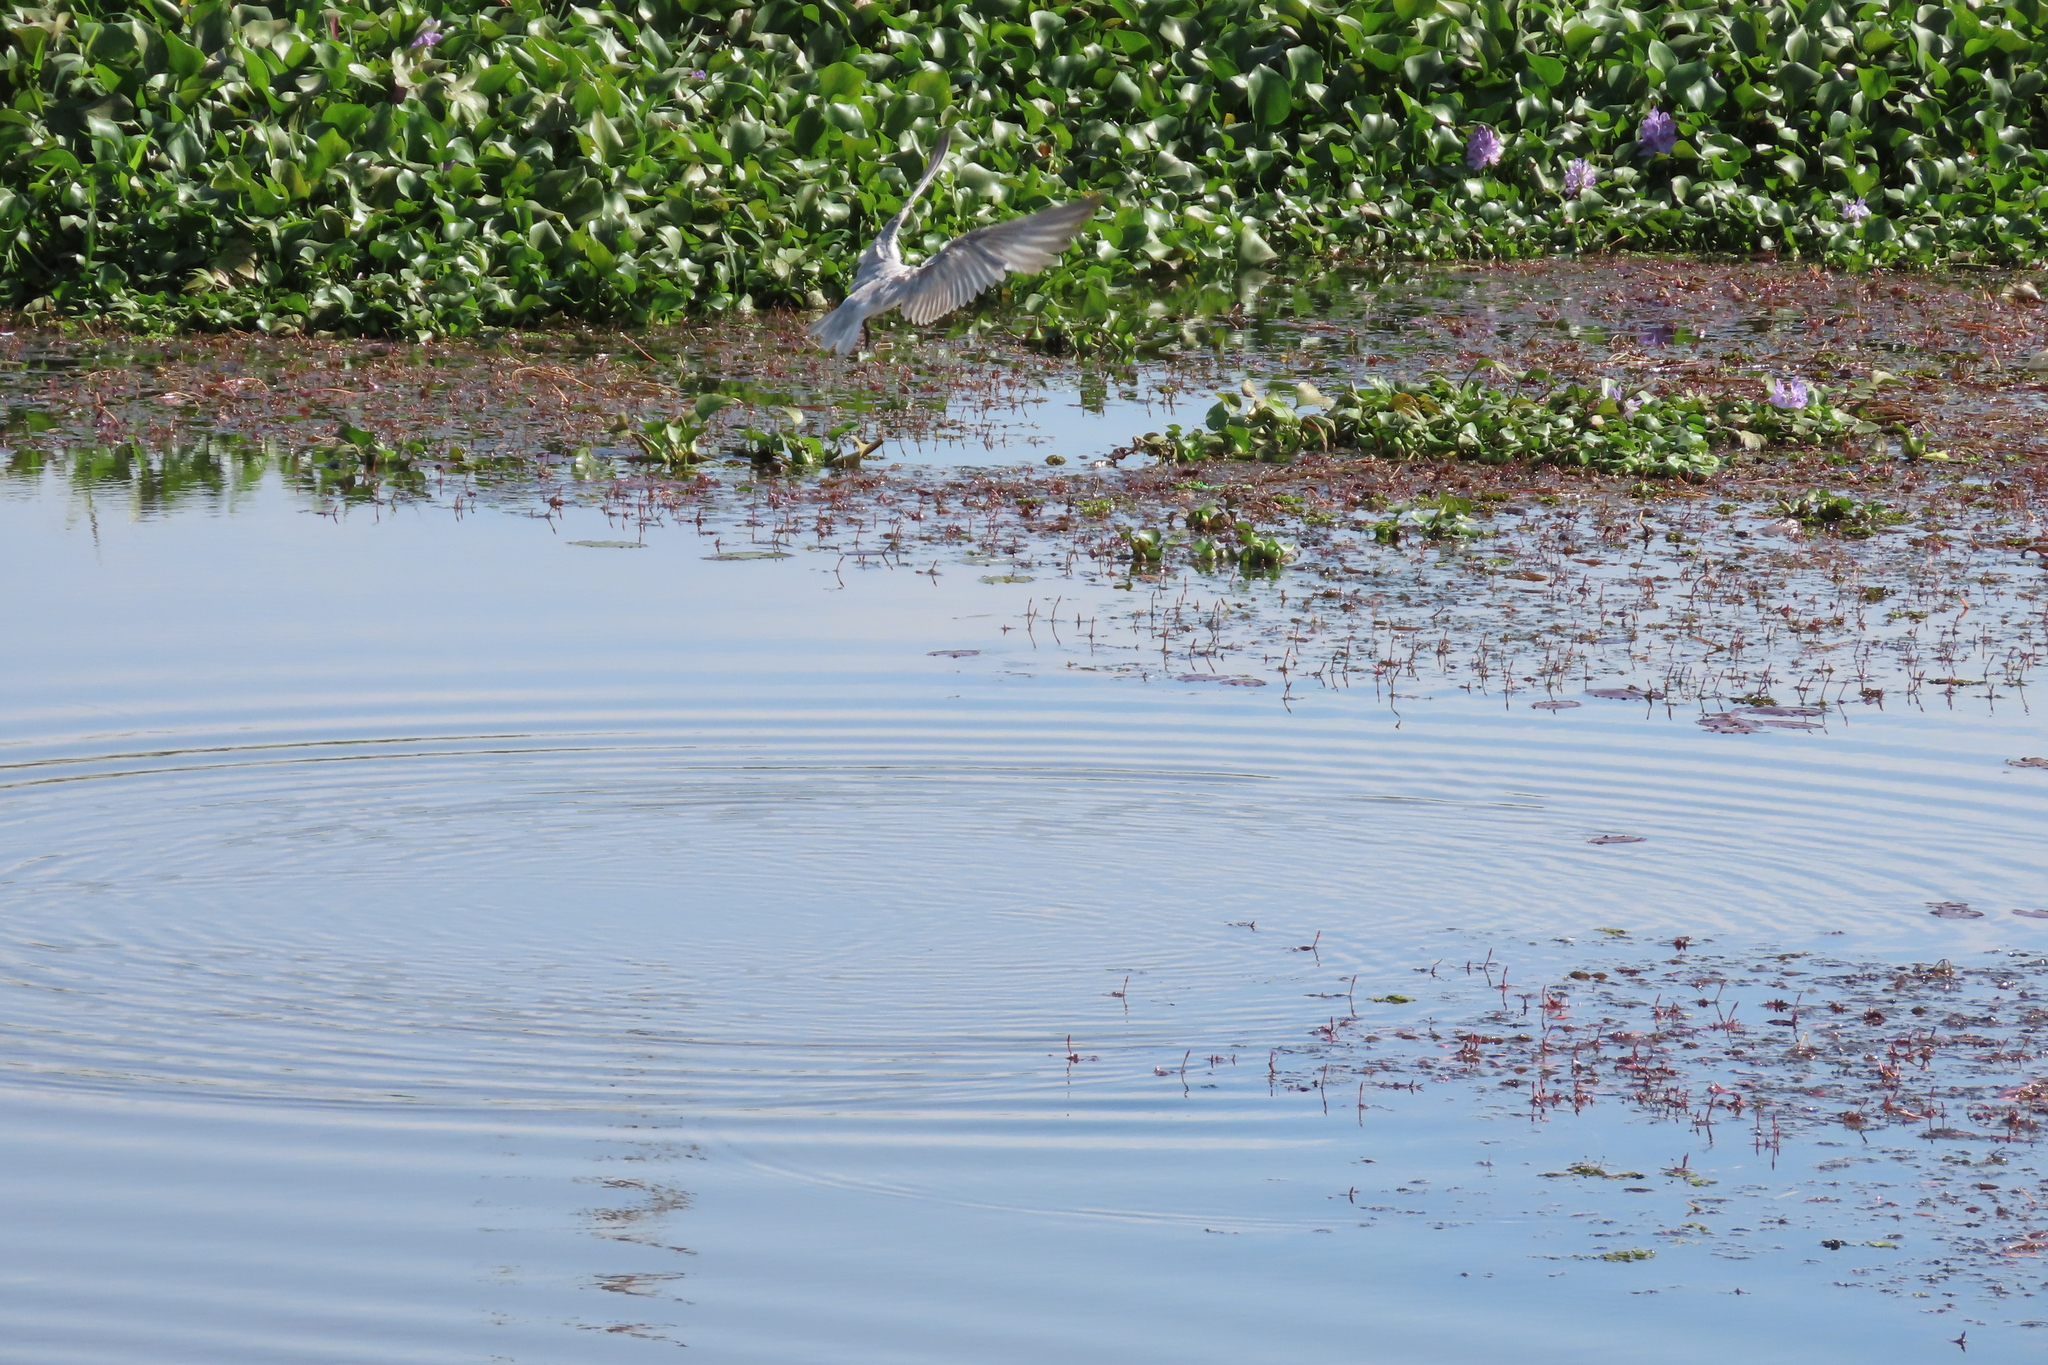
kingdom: Plantae
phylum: Tracheophyta
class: Liliopsida
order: Commelinales
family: Pontederiaceae
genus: Pontederia
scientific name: Pontederia crassipes
